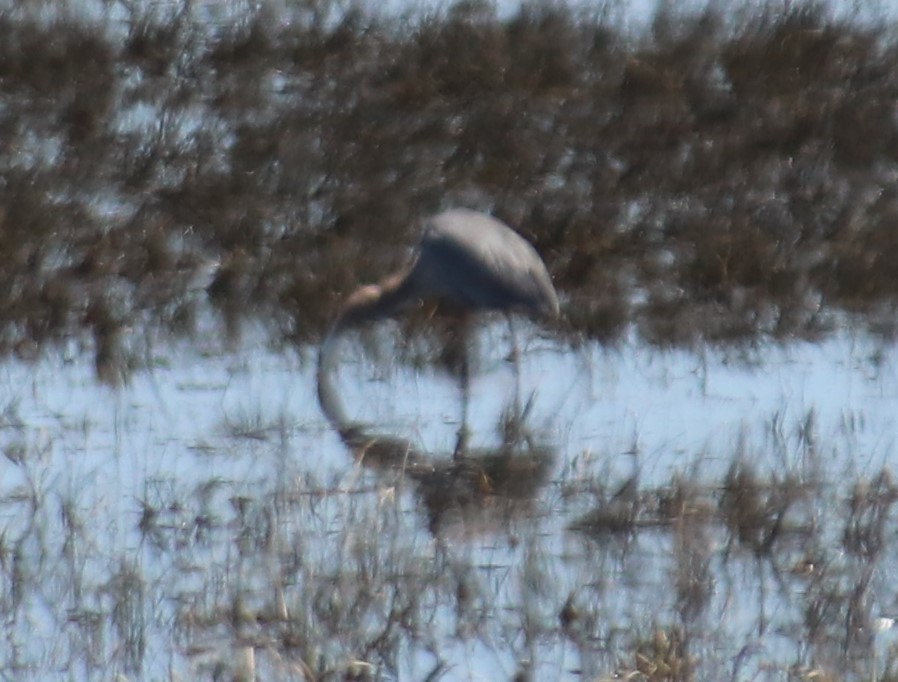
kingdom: Animalia
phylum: Chordata
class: Aves
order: Pelecaniformes
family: Ardeidae
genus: Ardea
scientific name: Ardea herodias
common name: Great blue heron
